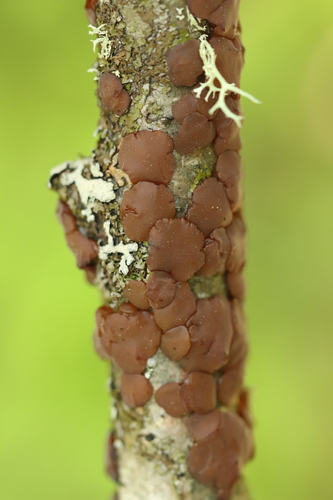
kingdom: Fungi
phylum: Basidiomycota
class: Agaricomycetes
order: Auriculariales
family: Auriculariaceae
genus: Exidia
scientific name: Exidia
